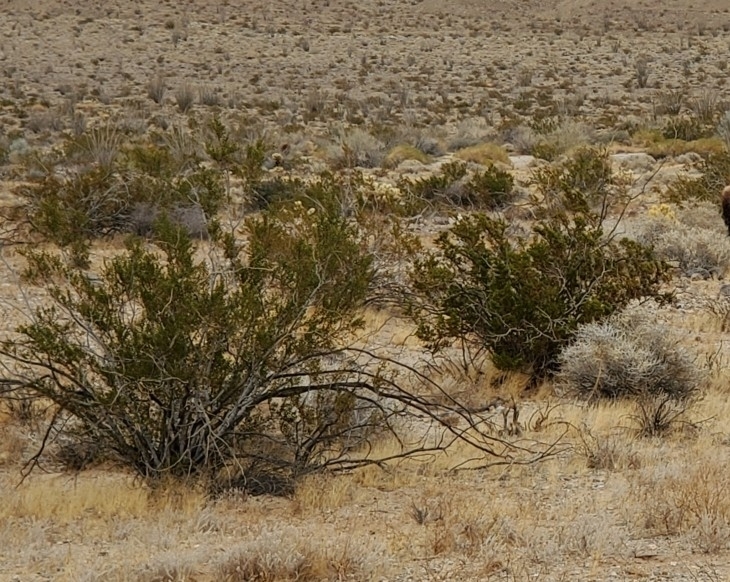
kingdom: Plantae
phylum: Tracheophyta
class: Magnoliopsida
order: Zygophyllales
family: Zygophyllaceae
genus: Larrea
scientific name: Larrea tridentata
